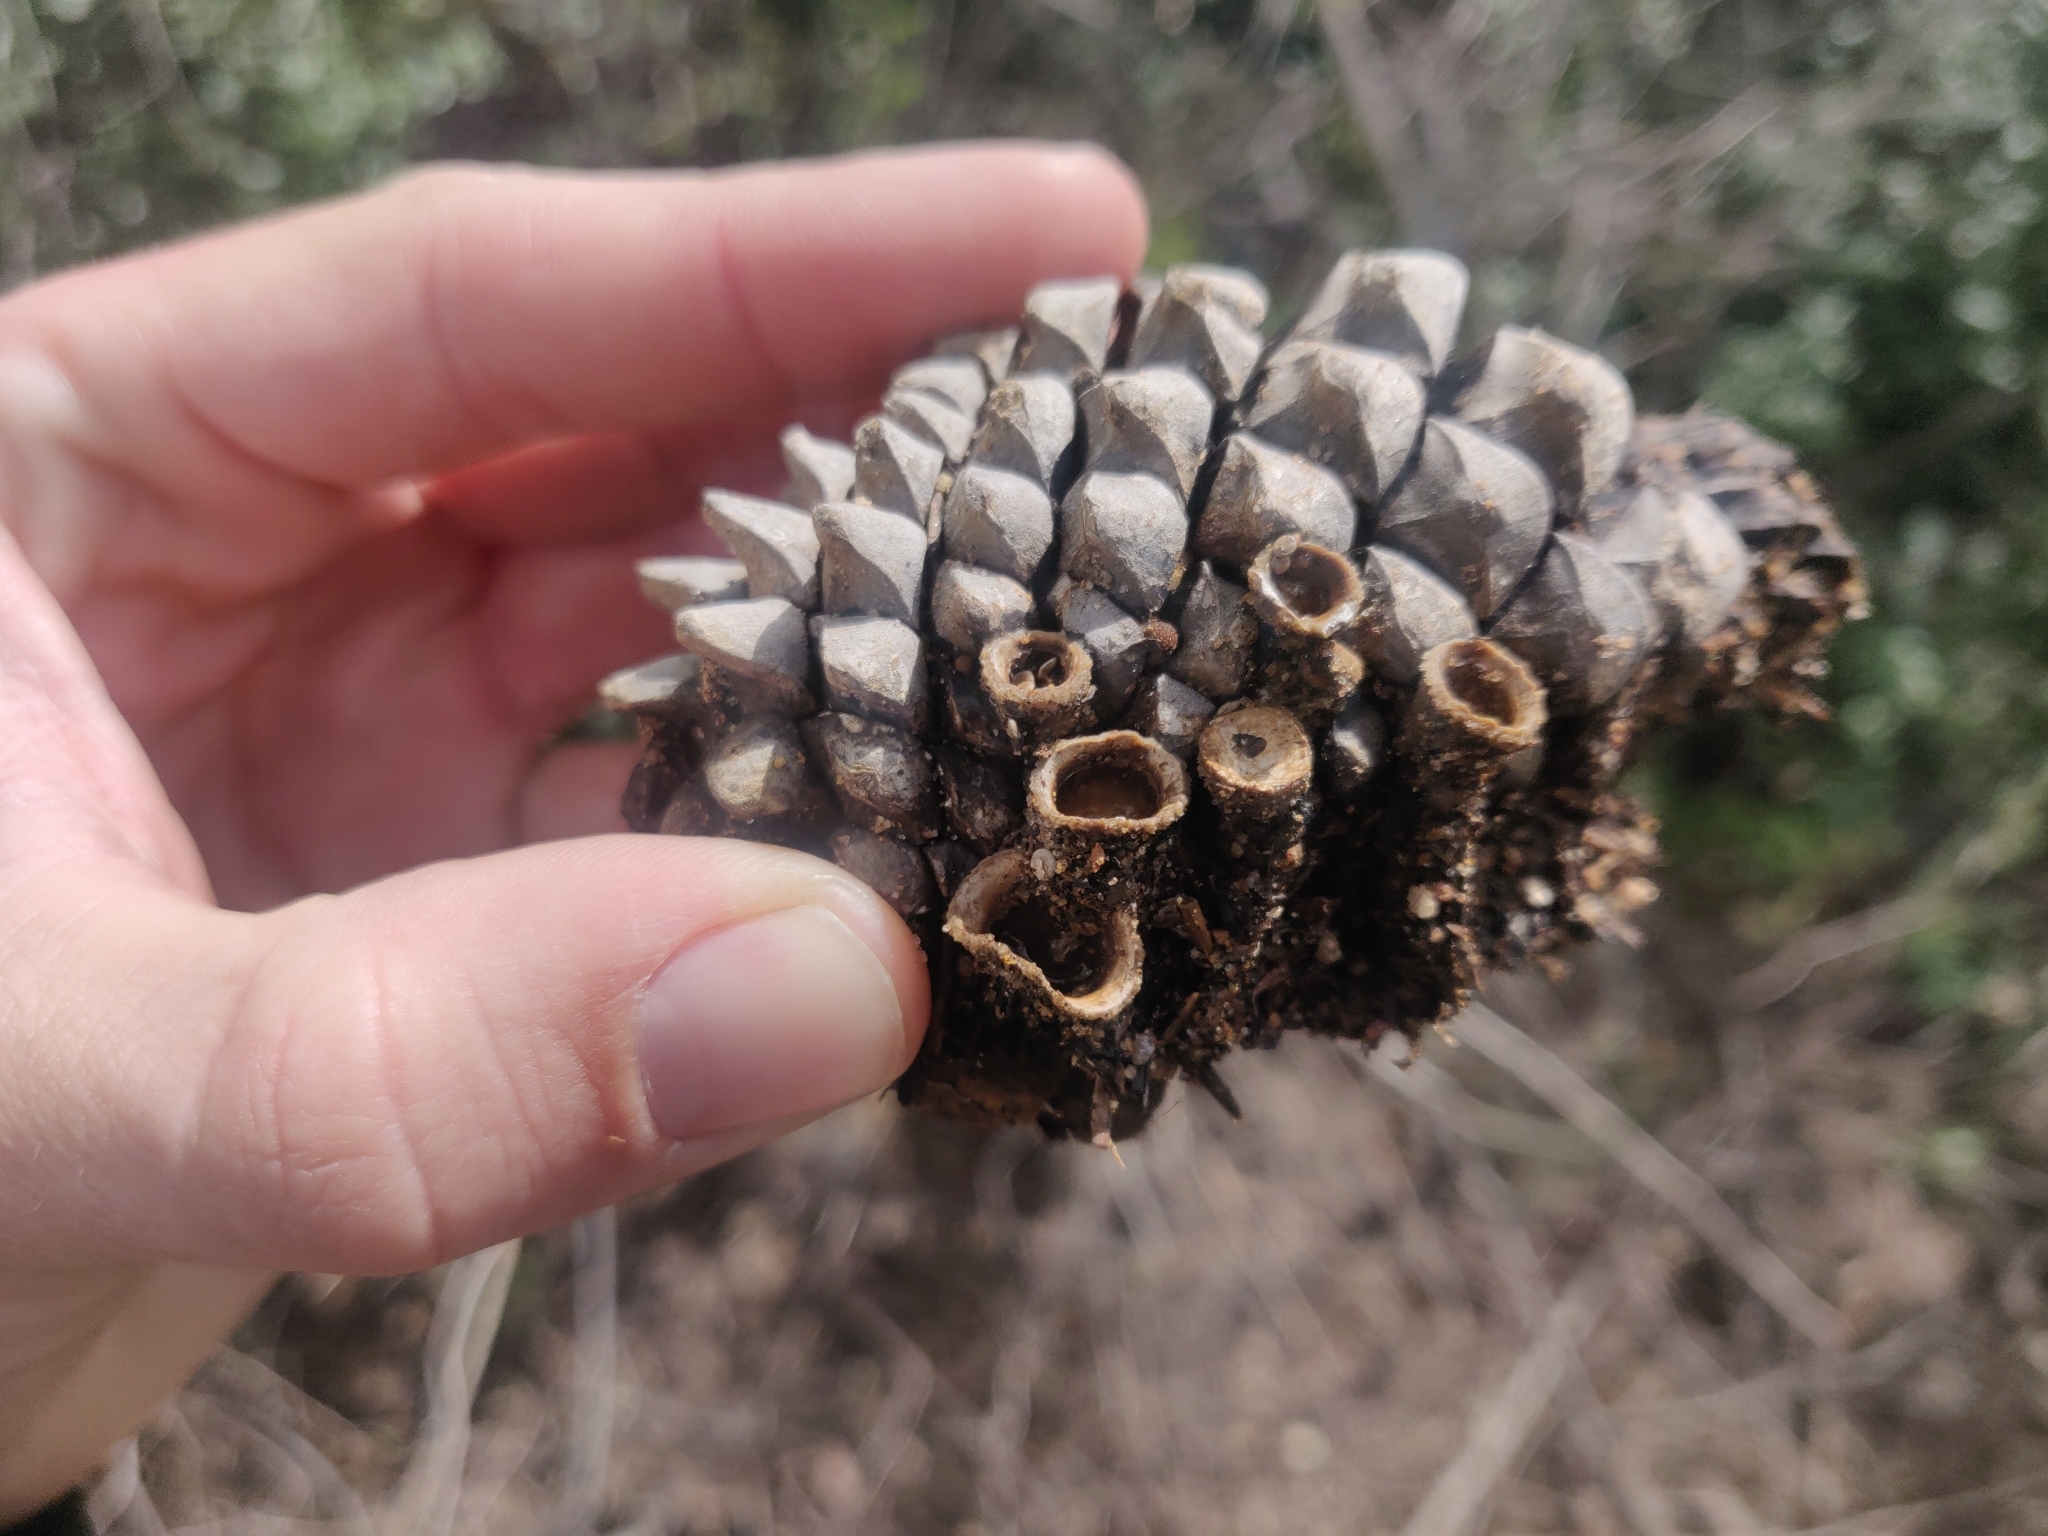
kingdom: Fungi
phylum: Basidiomycota
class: Agaricomycetes
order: Agaricales
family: Agaricaceae
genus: Cyathus
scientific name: Cyathus olla
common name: Field bird's nest
